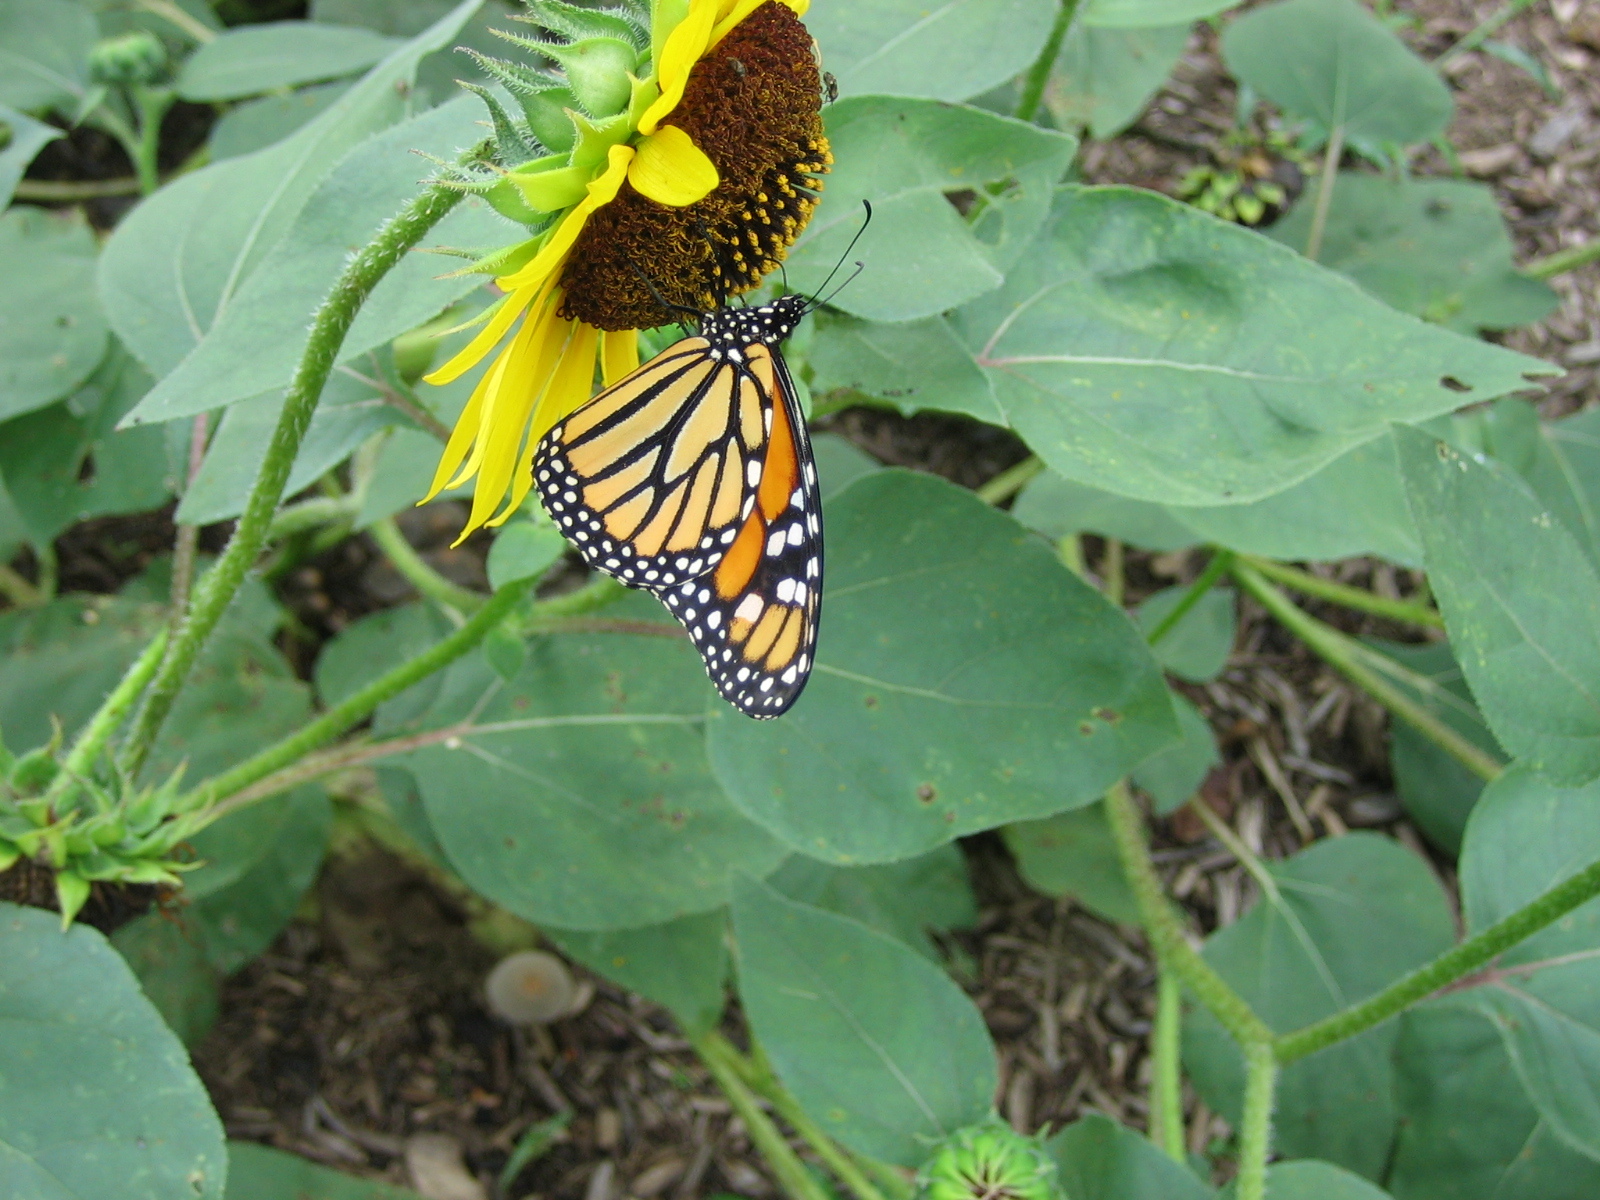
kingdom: Animalia
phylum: Arthropoda
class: Insecta
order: Lepidoptera
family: Nymphalidae
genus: Danaus
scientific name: Danaus plexippus
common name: Monarch
